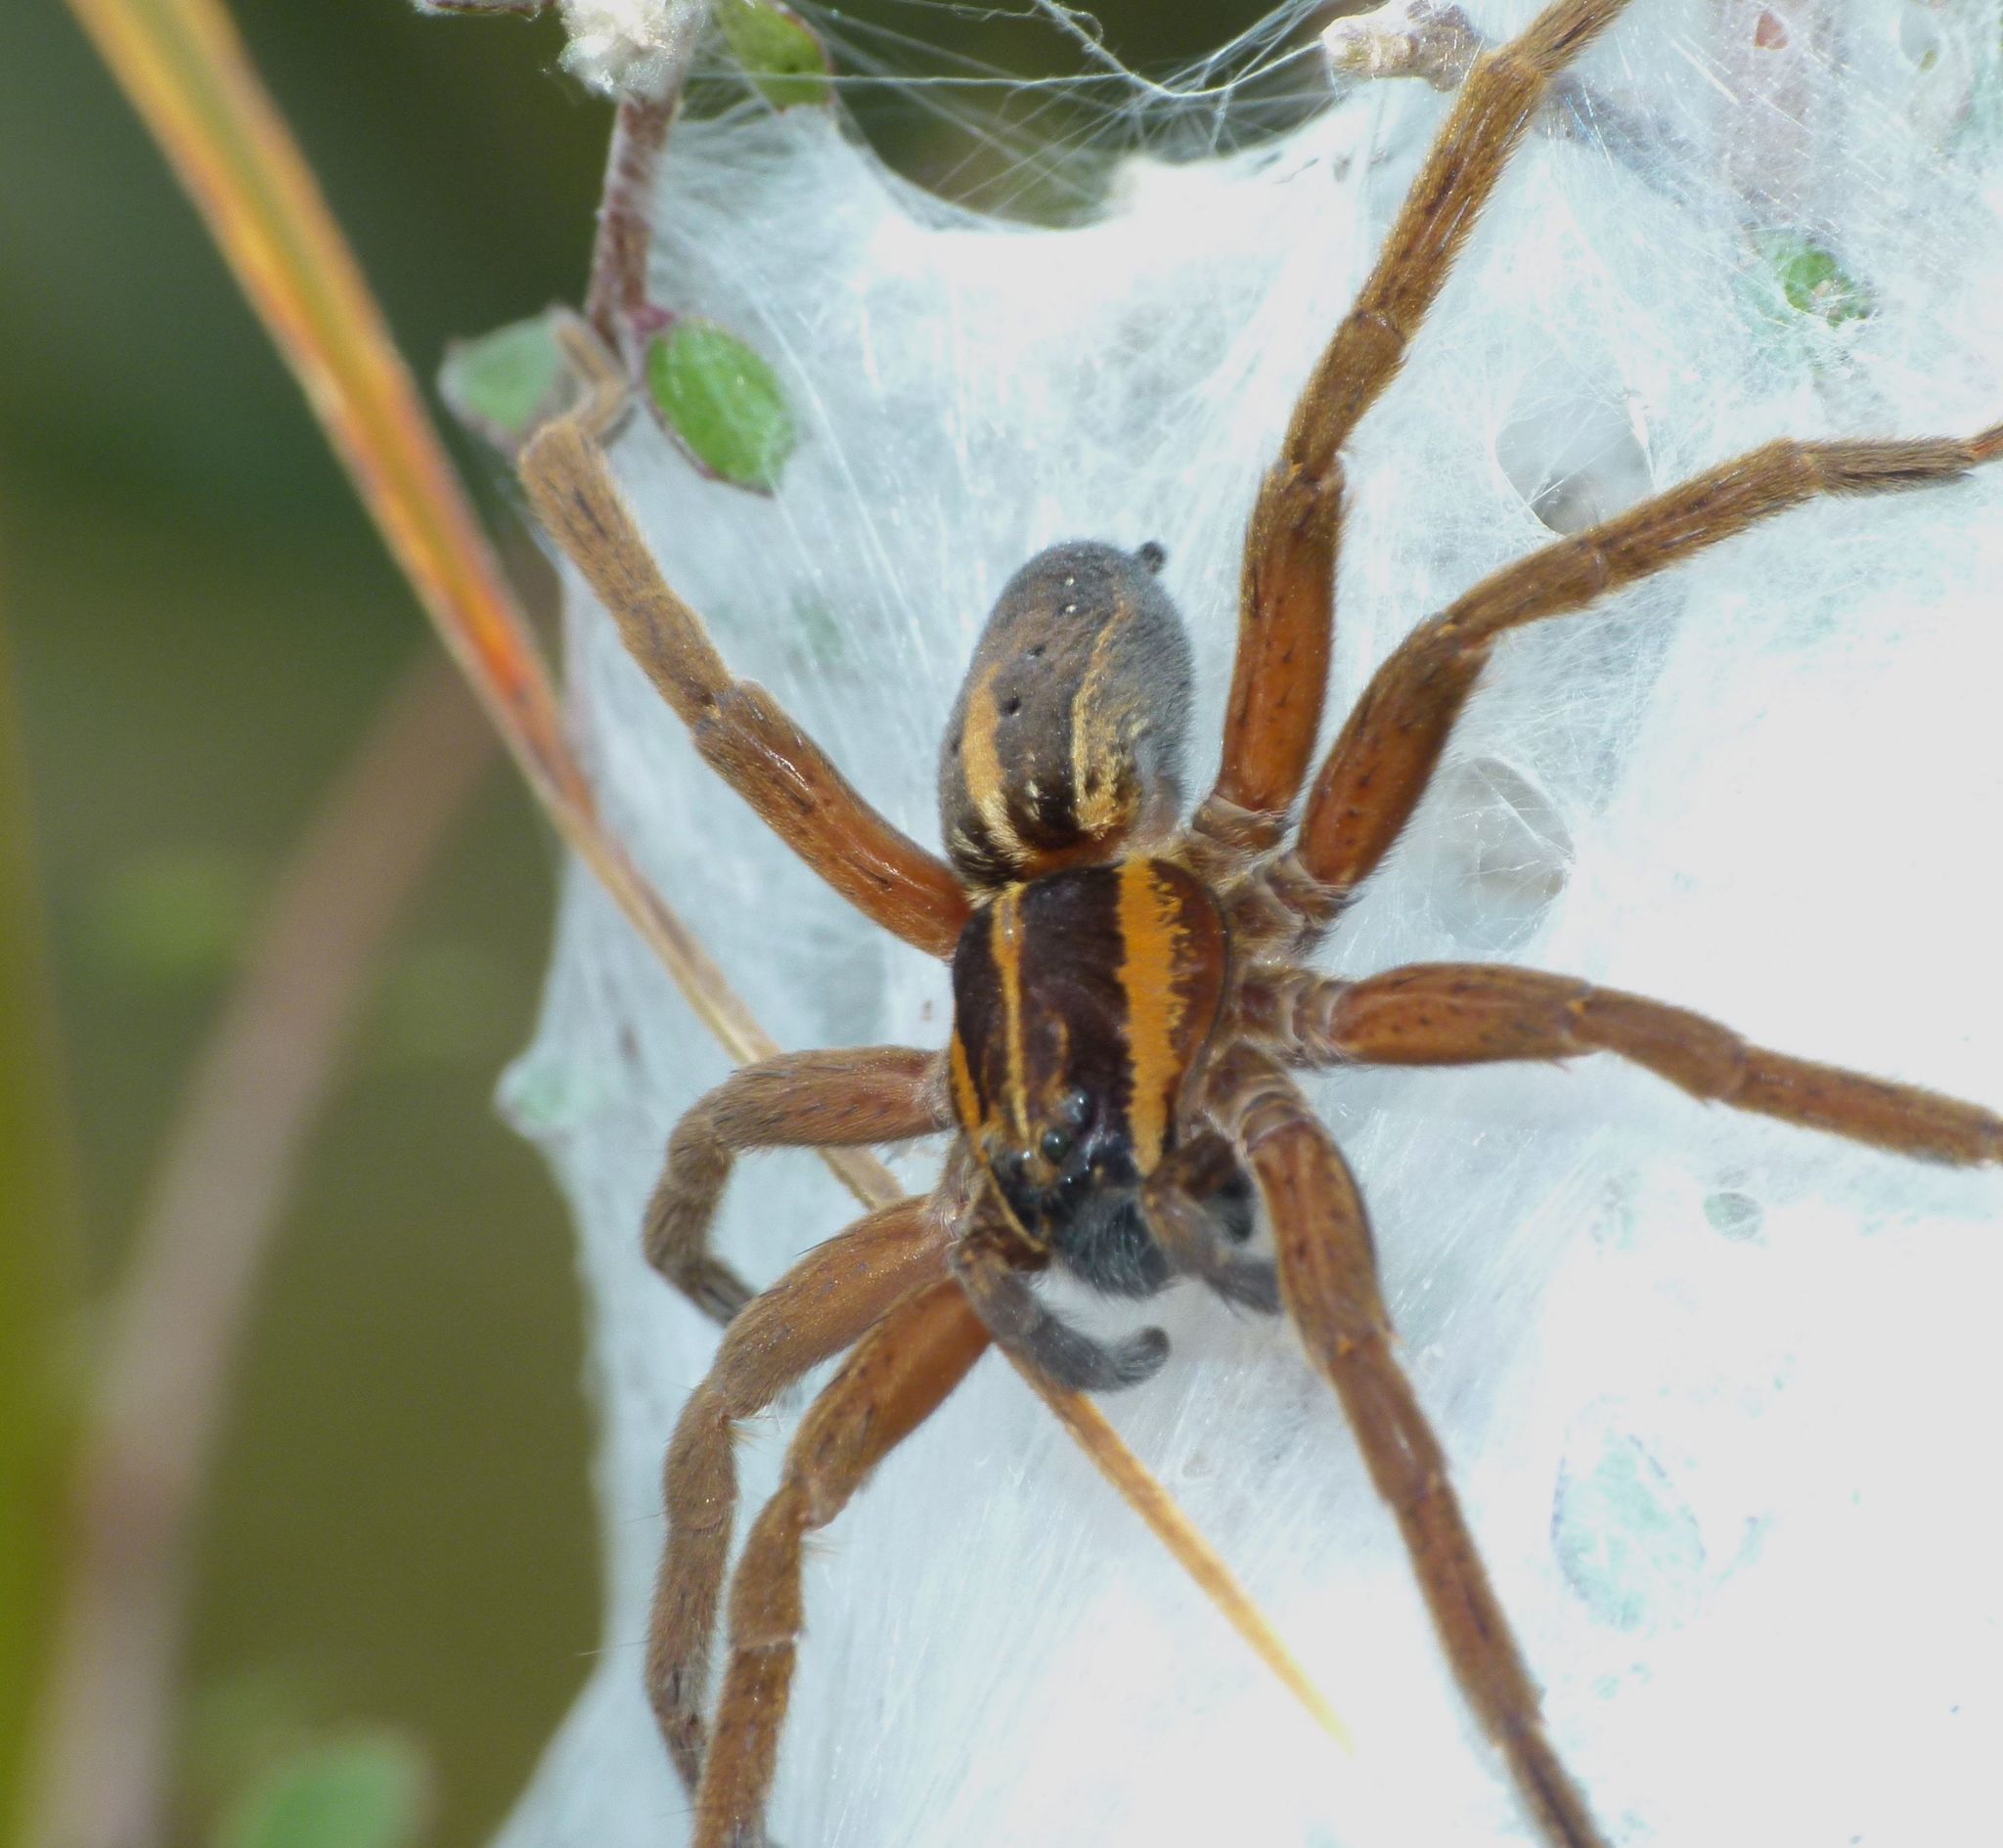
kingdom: Animalia
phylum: Arthropoda
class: Arachnida
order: Araneae
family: Pisauridae
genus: Dolomedes
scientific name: Dolomedes minor
